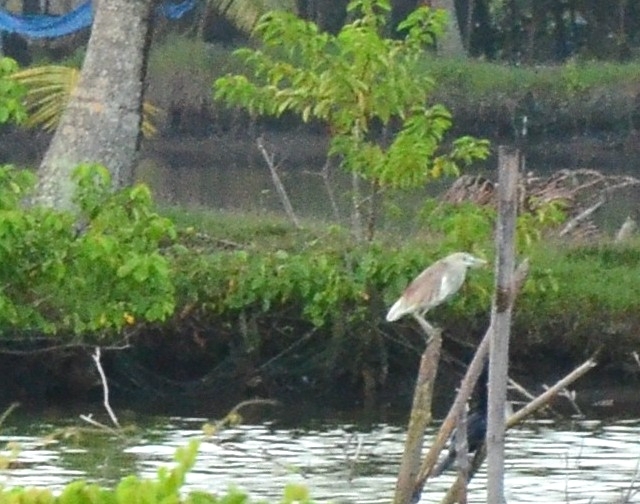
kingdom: Animalia
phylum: Chordata
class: Aves
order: Pelecaniformes
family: Ardeidae
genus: Ardeola
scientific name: Ardeola grayii
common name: Indian pond heron
